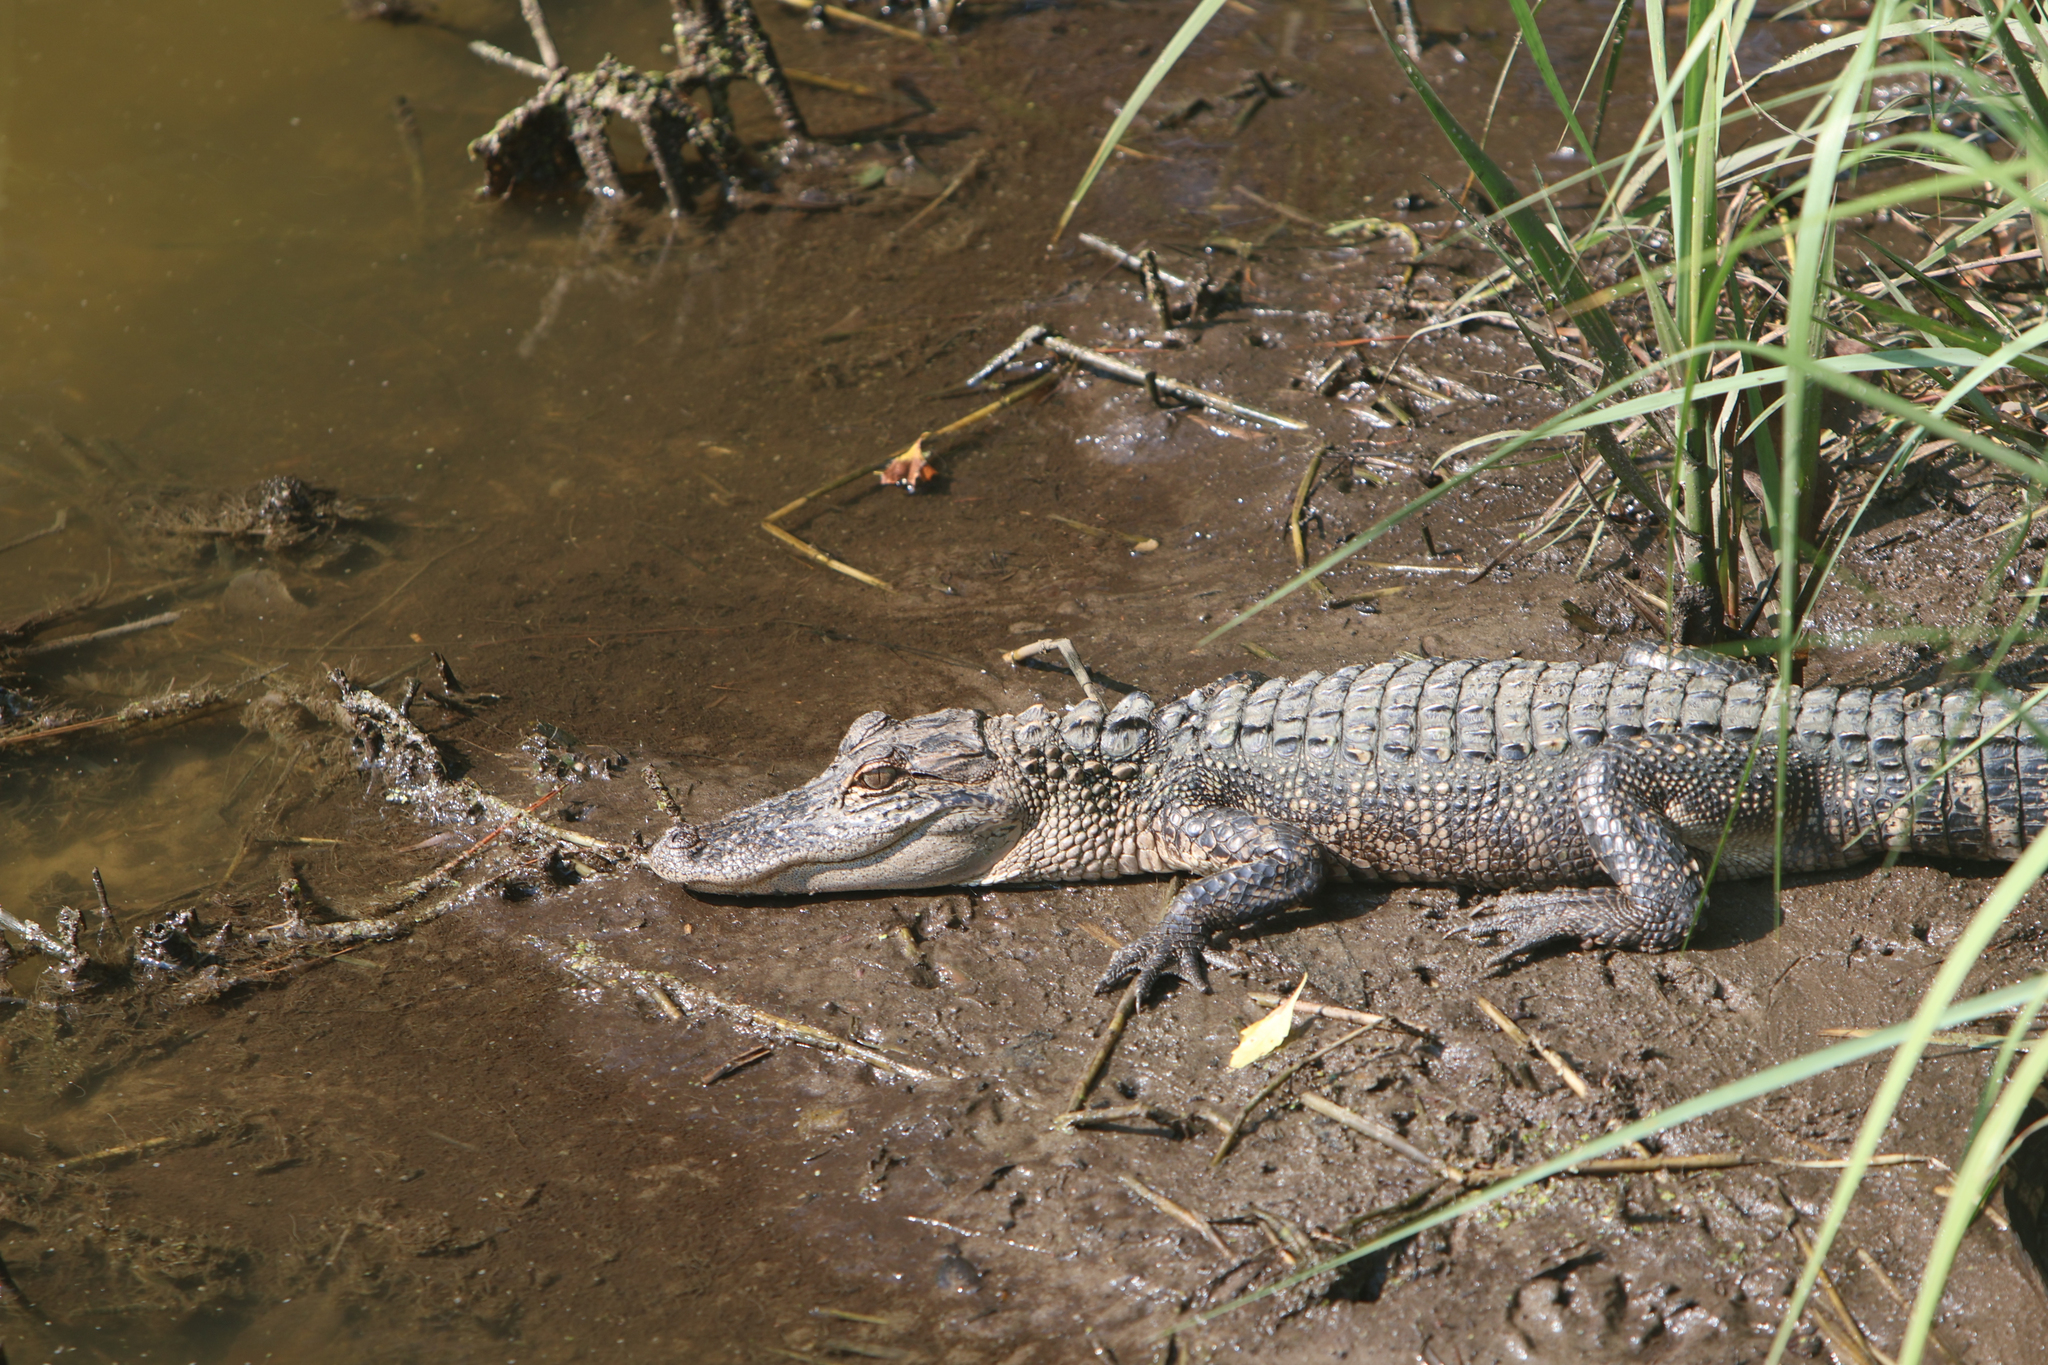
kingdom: Animalia
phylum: Chordata
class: Crocodylia
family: Alligatoridae
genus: Alligator
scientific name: Alligator mississippiensis
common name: American alligator
